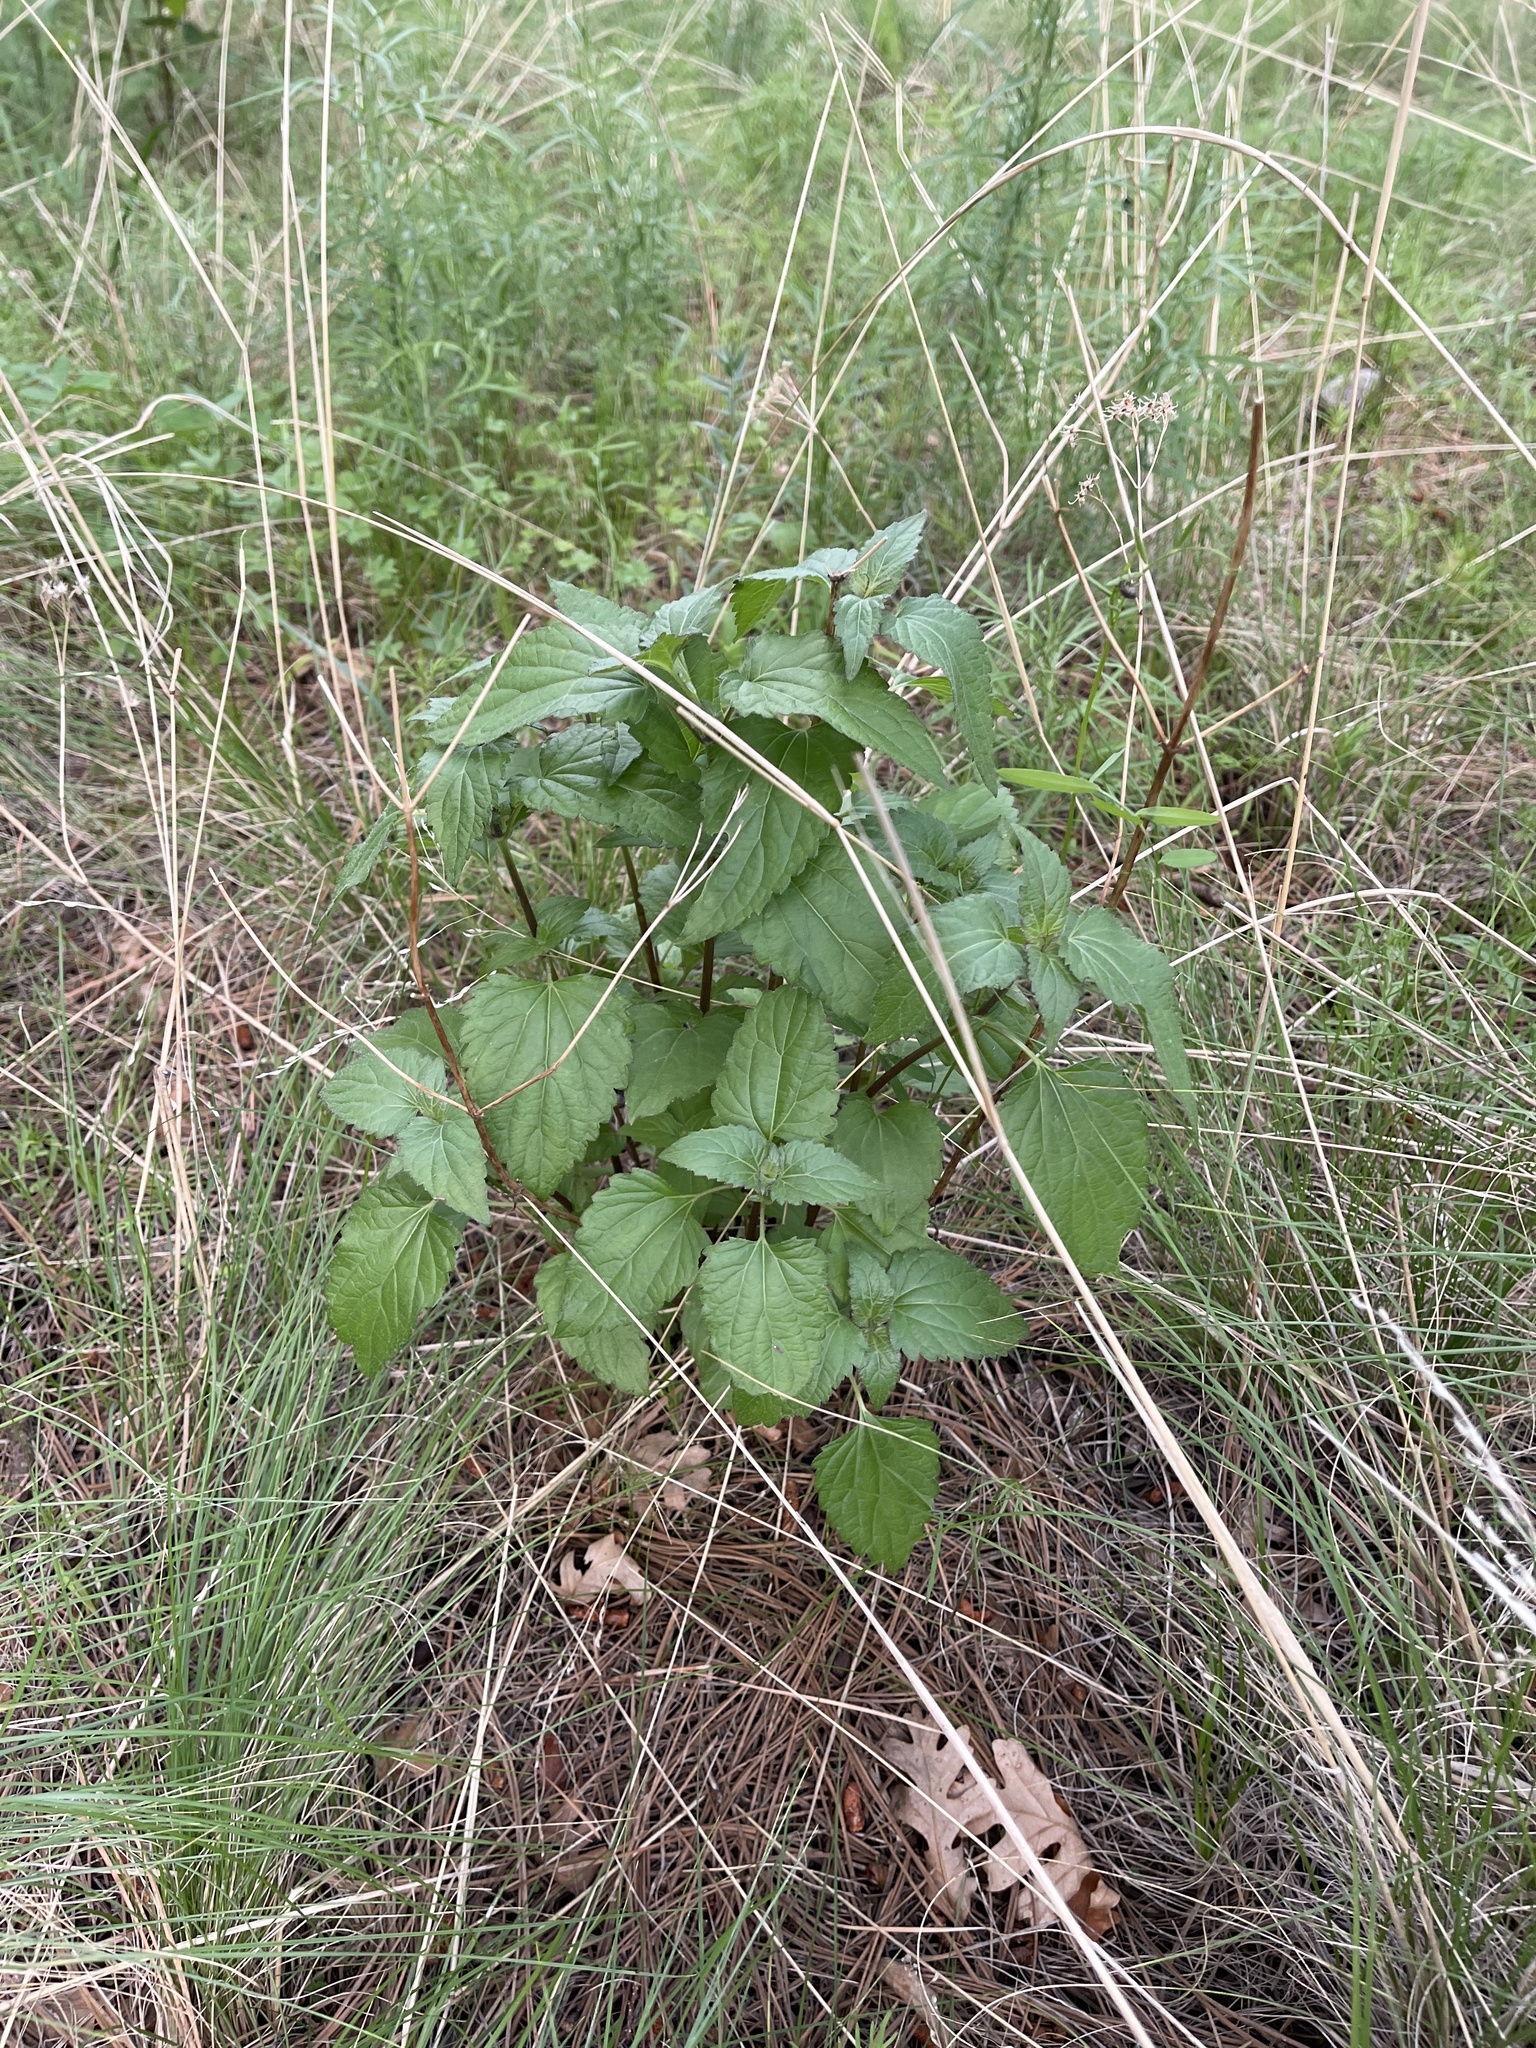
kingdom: Plantae
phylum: Tracheophyta
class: Magnoliopsida
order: Rosales
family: Urticaceae
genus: Urtica
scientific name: Urtica gracilis
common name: Slender stinging nettle
